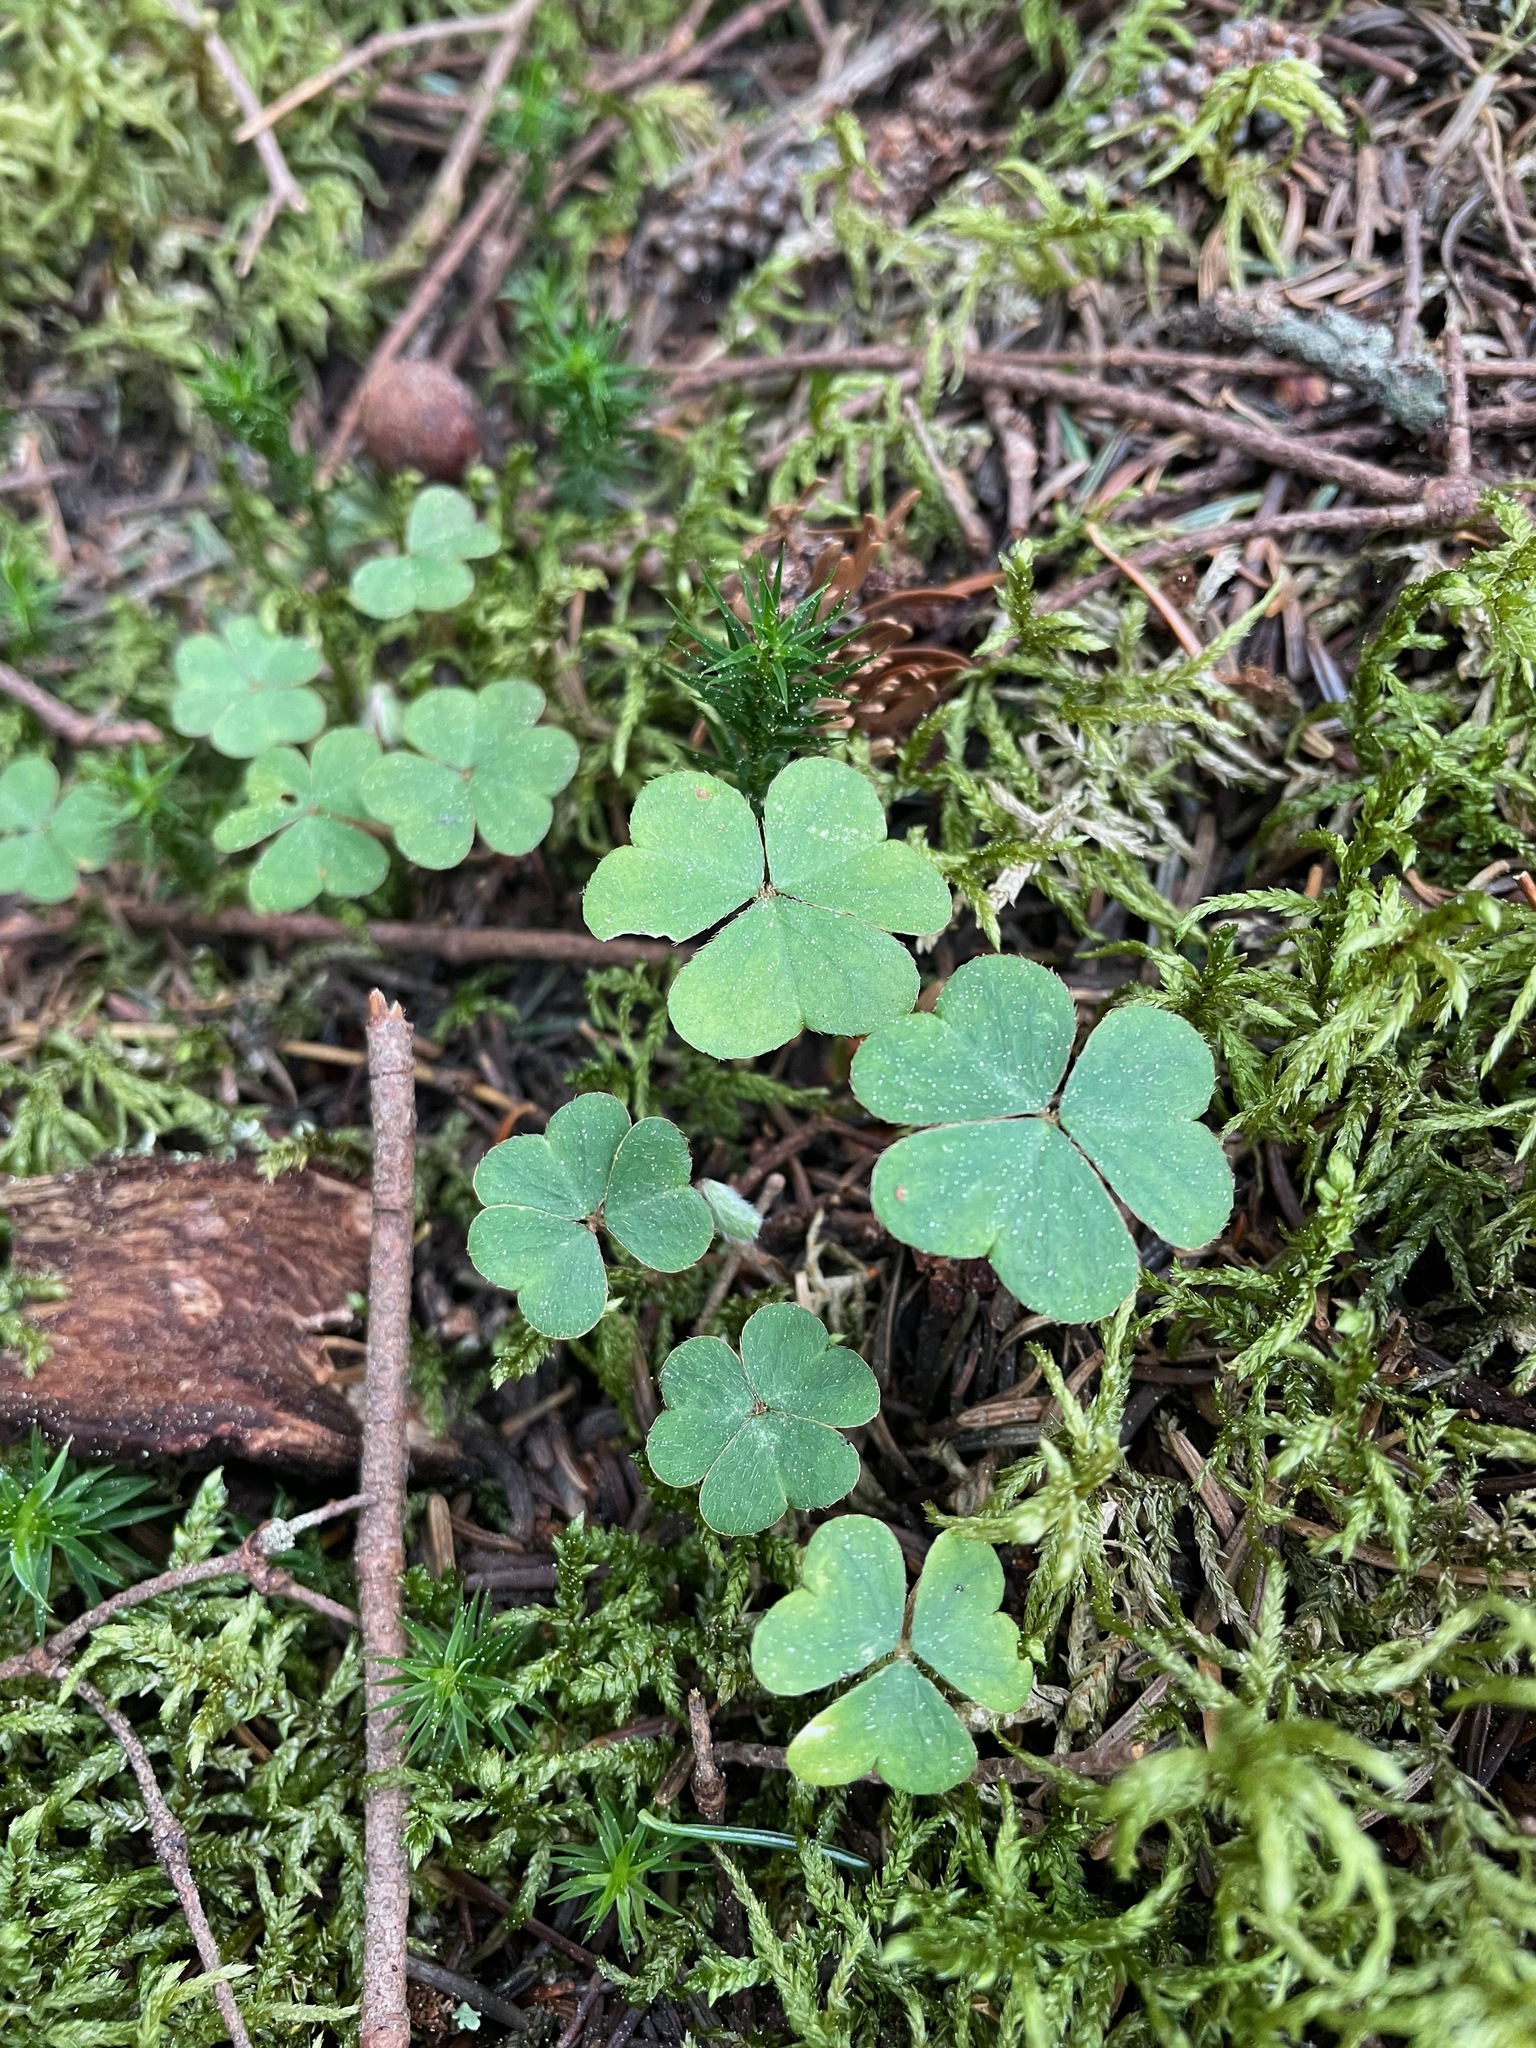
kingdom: Plantae
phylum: Tracheophyta
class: Magnoliopsida
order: Oxalidales
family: Oxalidaceae
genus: Oxalis
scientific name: Oxalis montana
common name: American wood-sorrel
